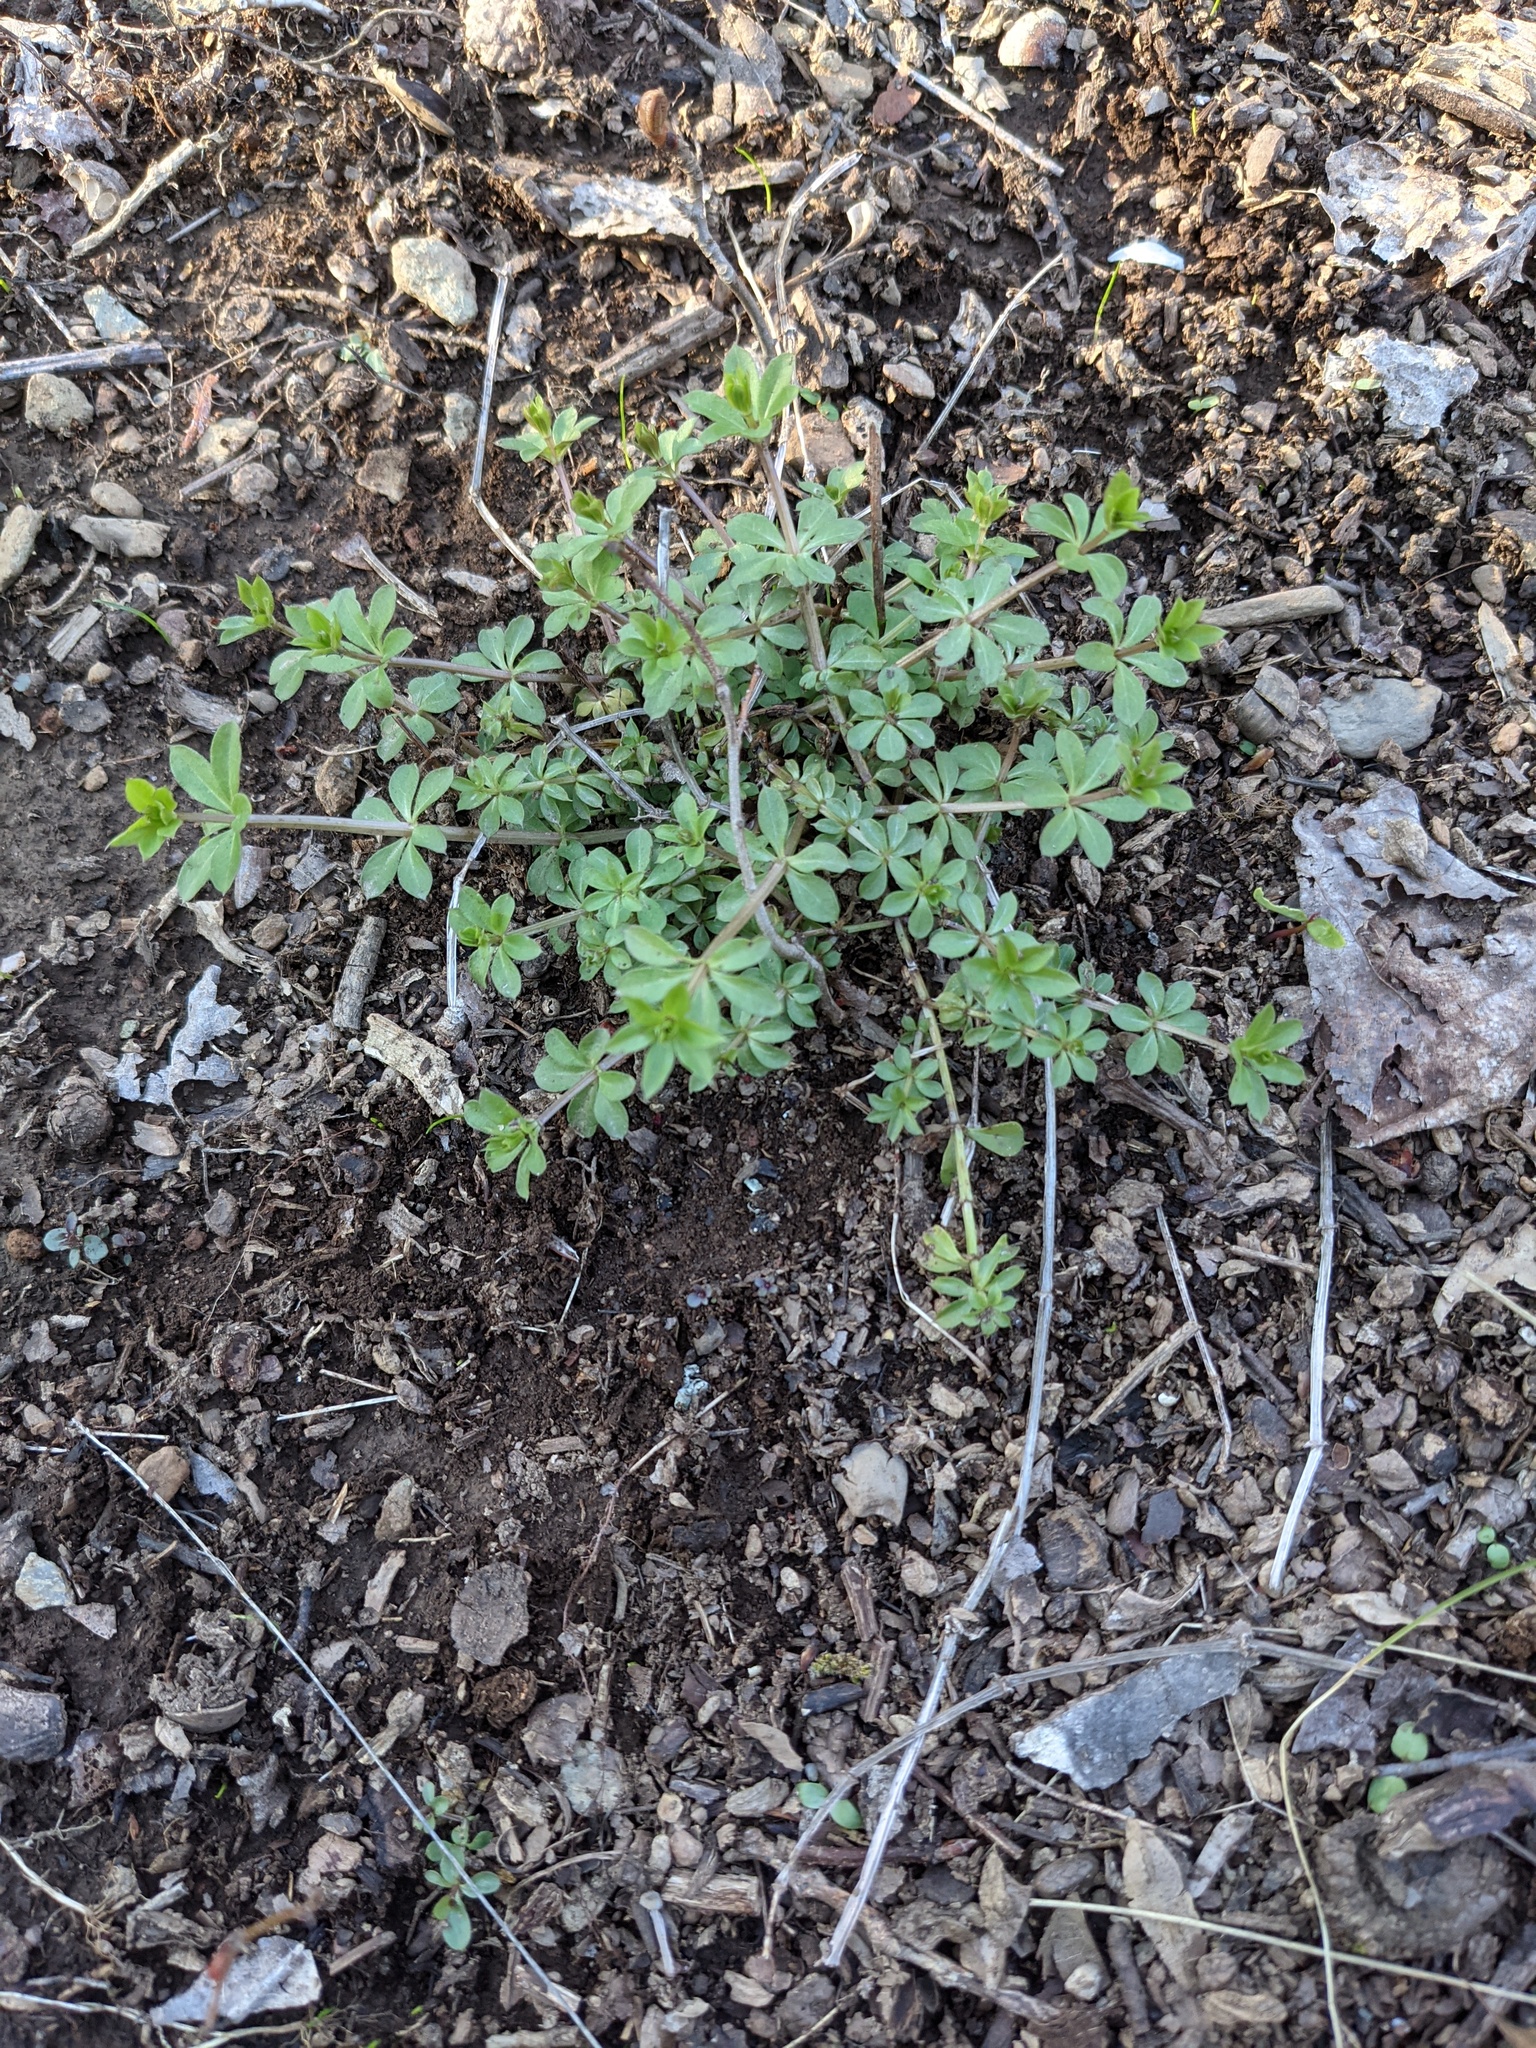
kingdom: Plantae
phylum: Tracheophyta
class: Magnoliopsida
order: Gentianales
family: Rubiaceae
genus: Galium
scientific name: Galium triflorum
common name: Fragrant bedstraw
